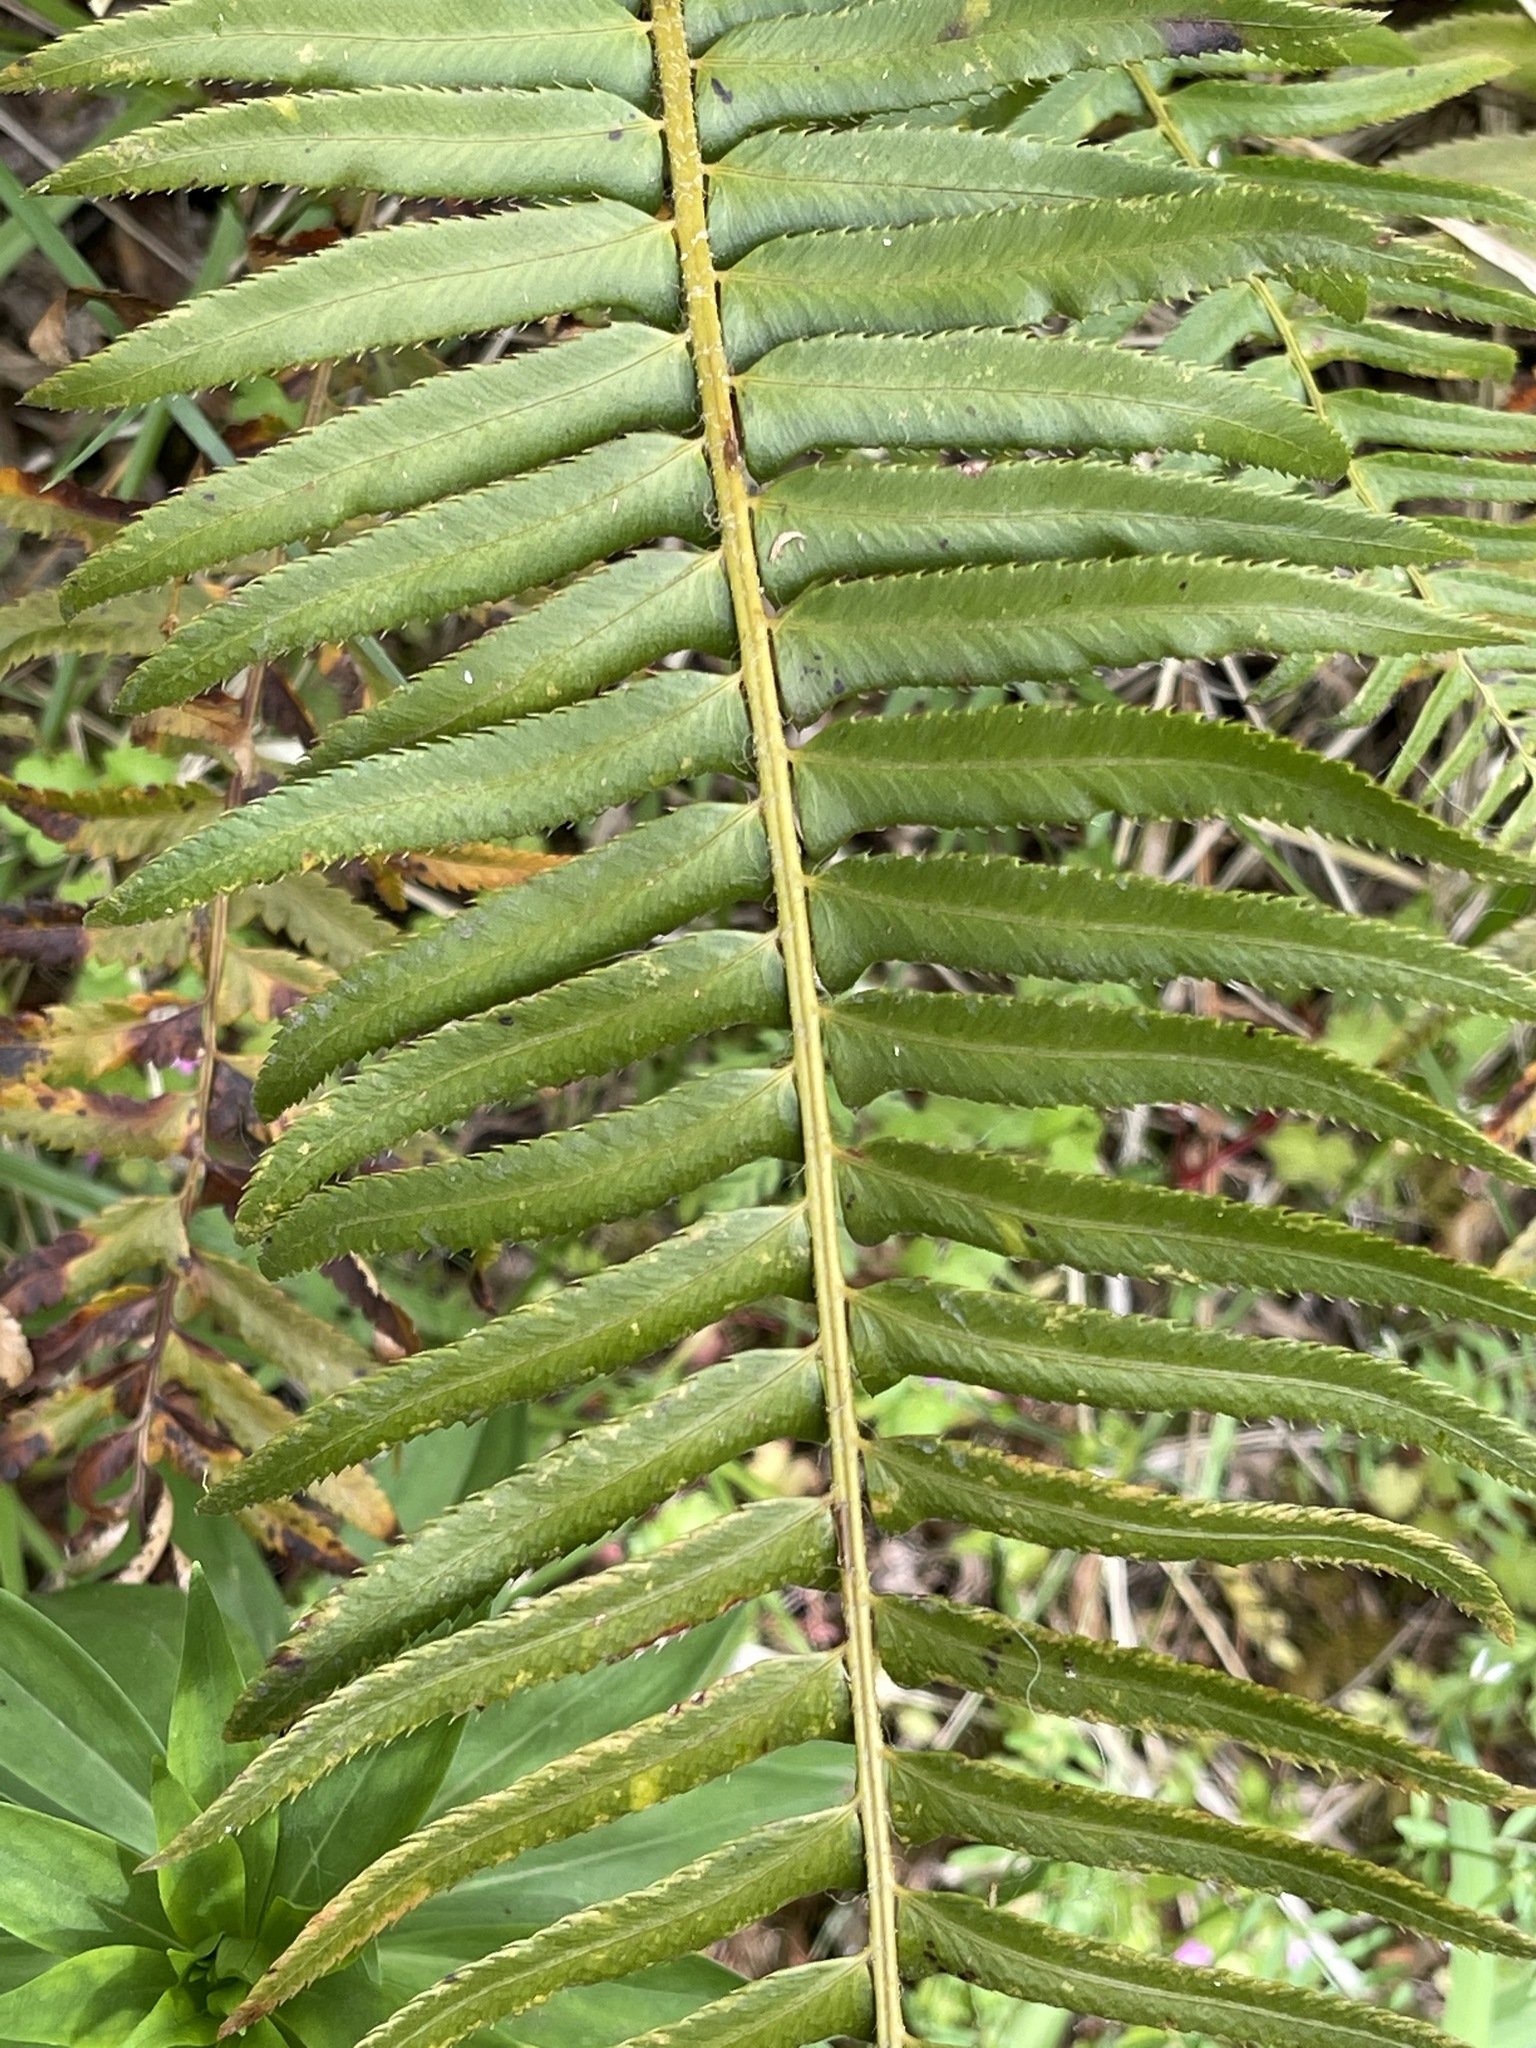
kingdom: Plantae
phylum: Tracheophyta
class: Polypodiopsida
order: Polypodiales
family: Dryopteridaceae
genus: Polystichum
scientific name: Polystichum munitum
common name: Western sword-fern
